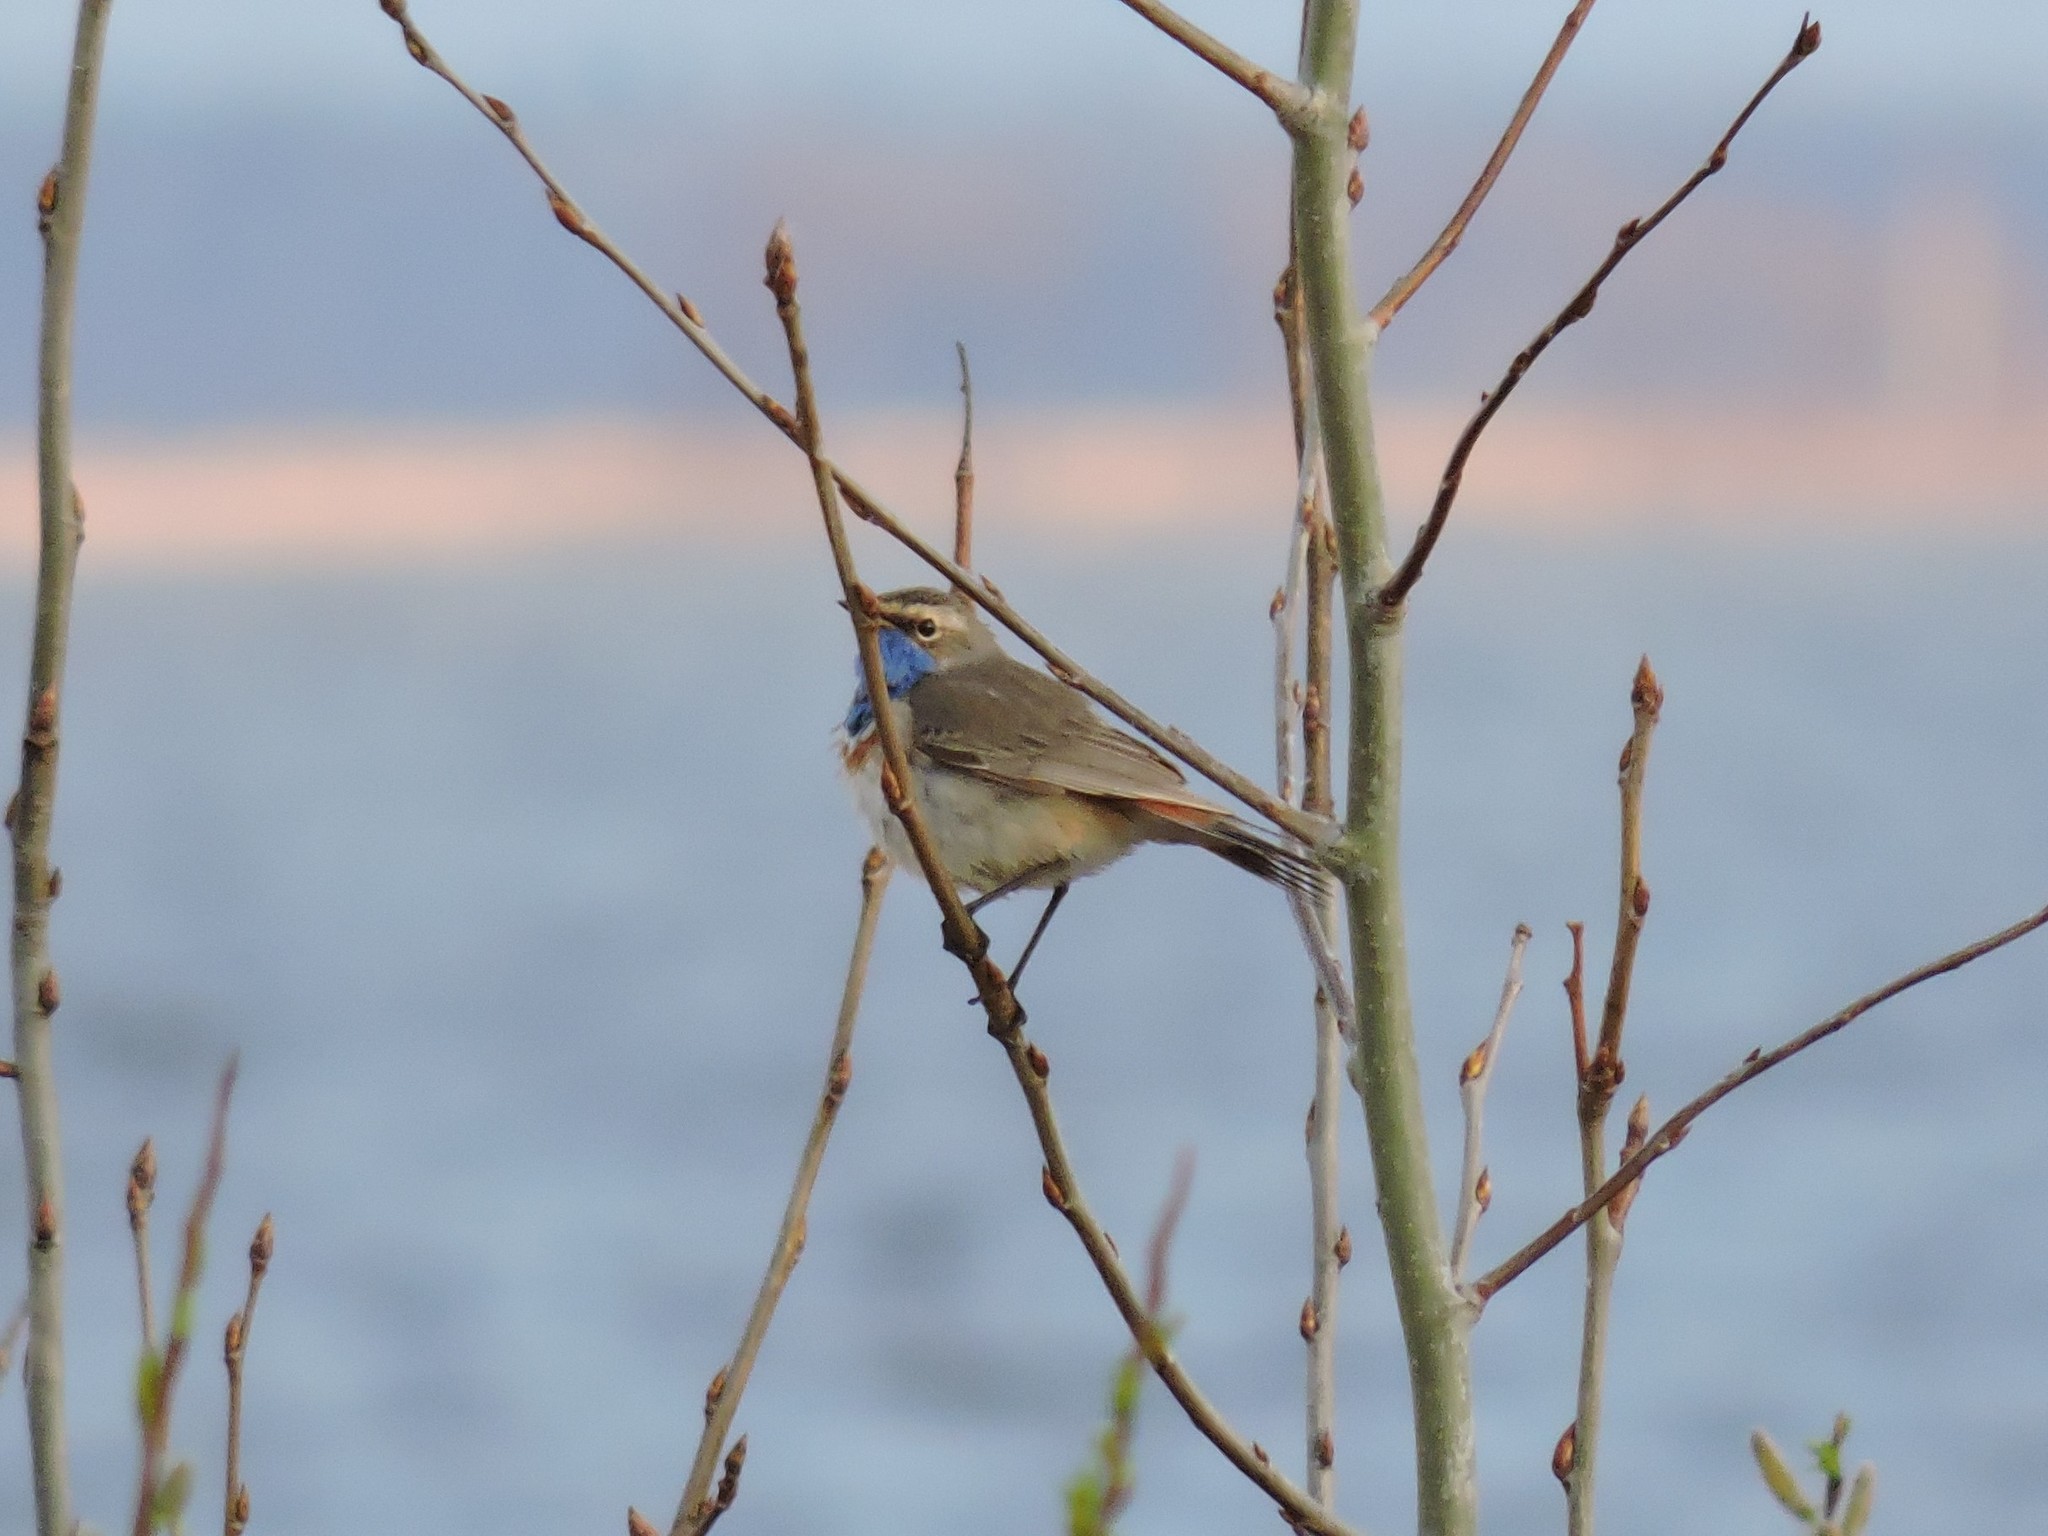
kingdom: Animalia
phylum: Chordata
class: Aves
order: Passeriformes
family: Muscicapidae
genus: Luscinia
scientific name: Luscinia svecica
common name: Bluethroat
